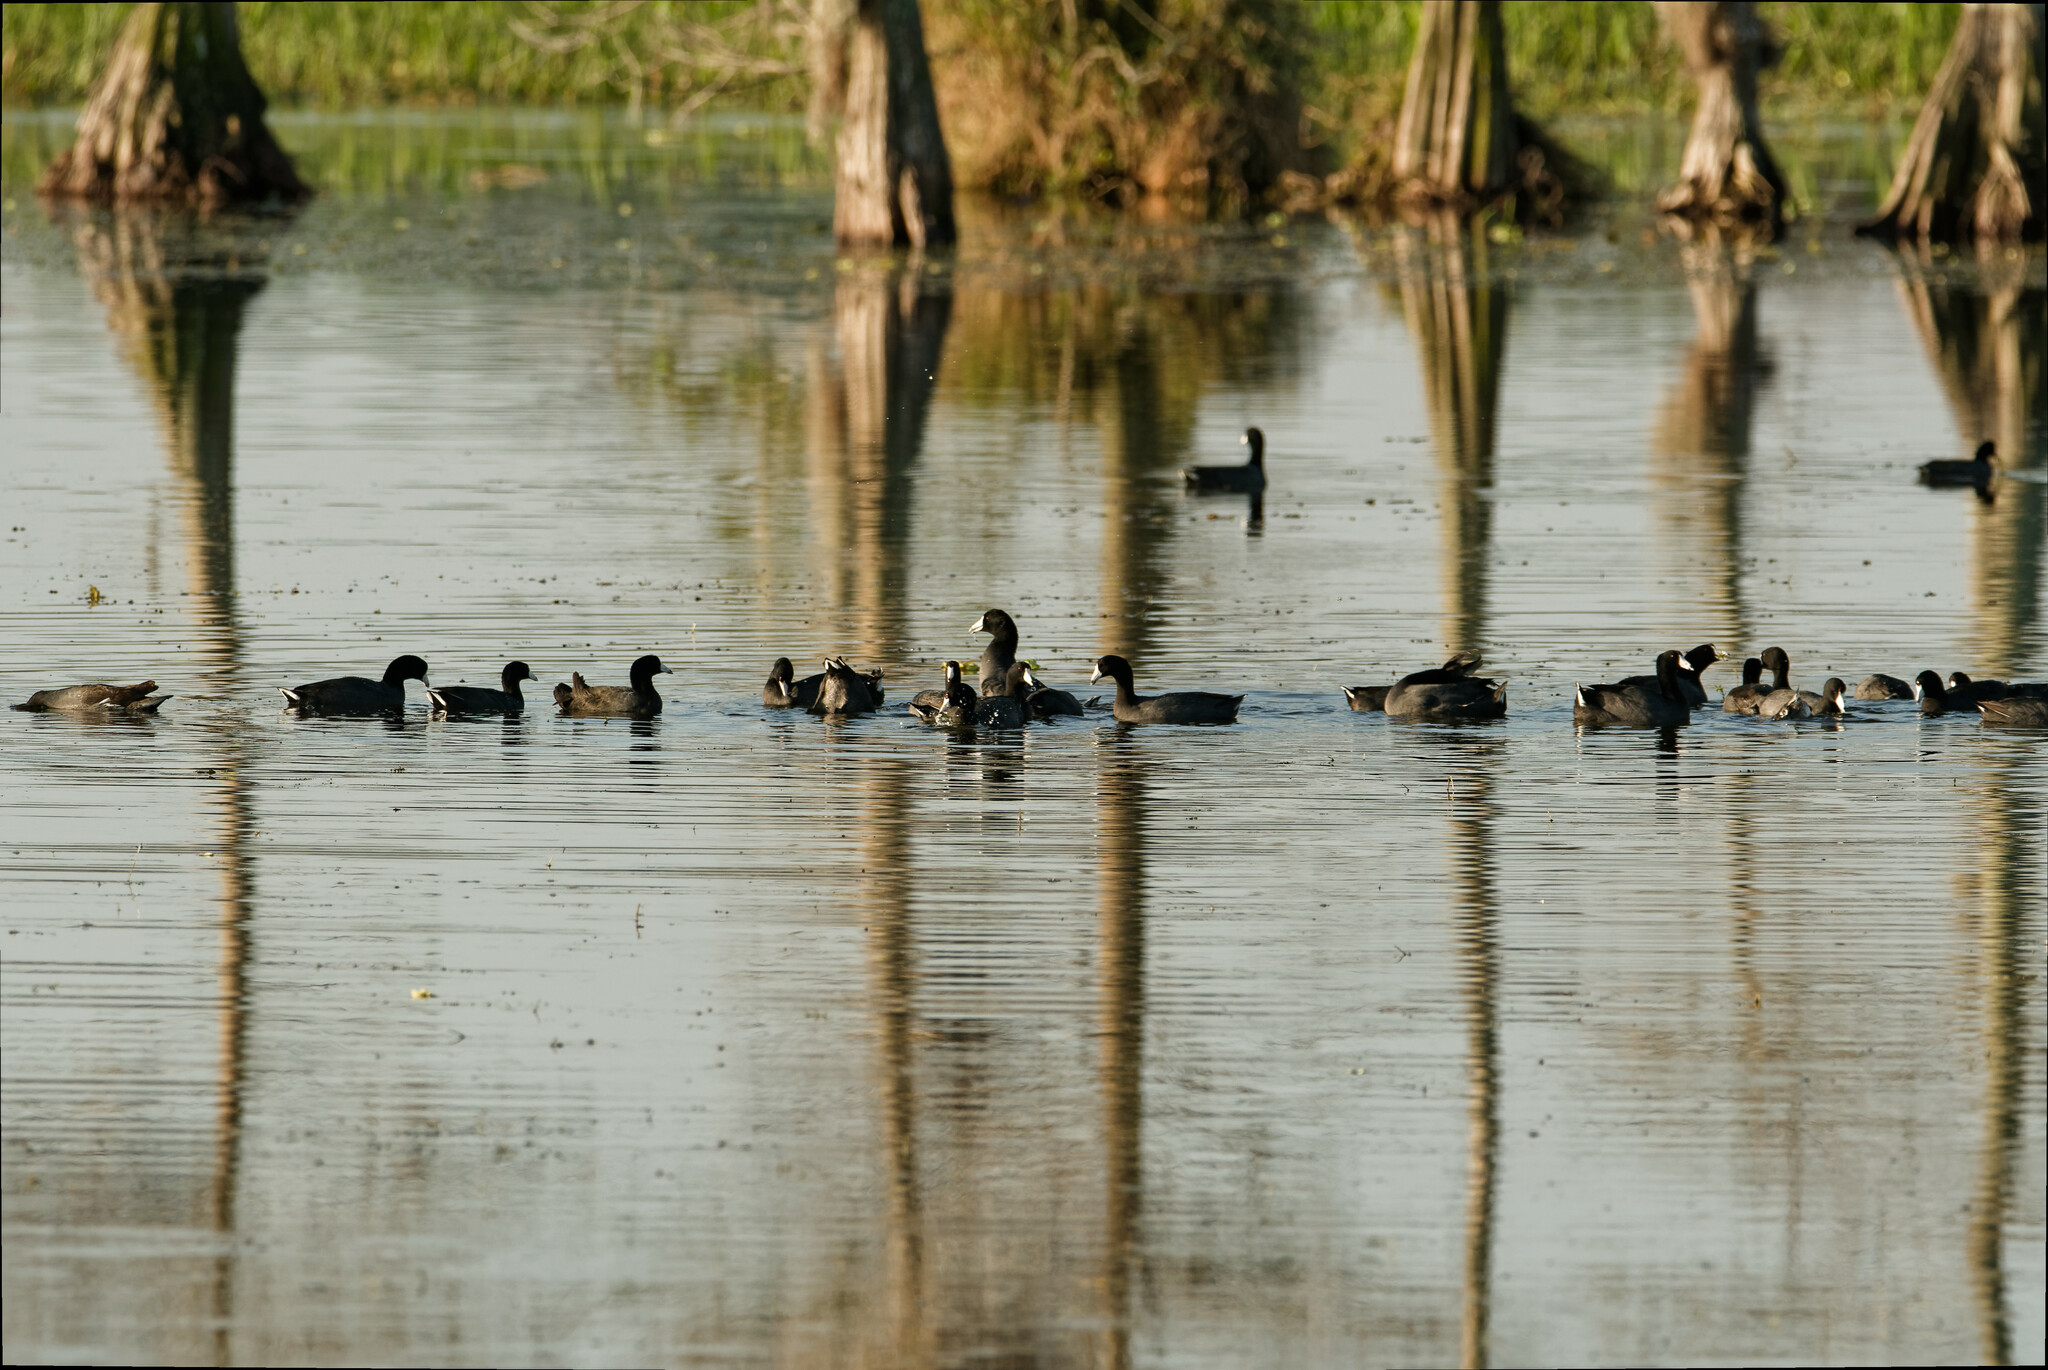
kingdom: Animalia
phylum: Chordata
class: Aves
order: Gruiformes
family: Rallidae
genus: Fulica
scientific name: Fulica americana
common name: American coot
